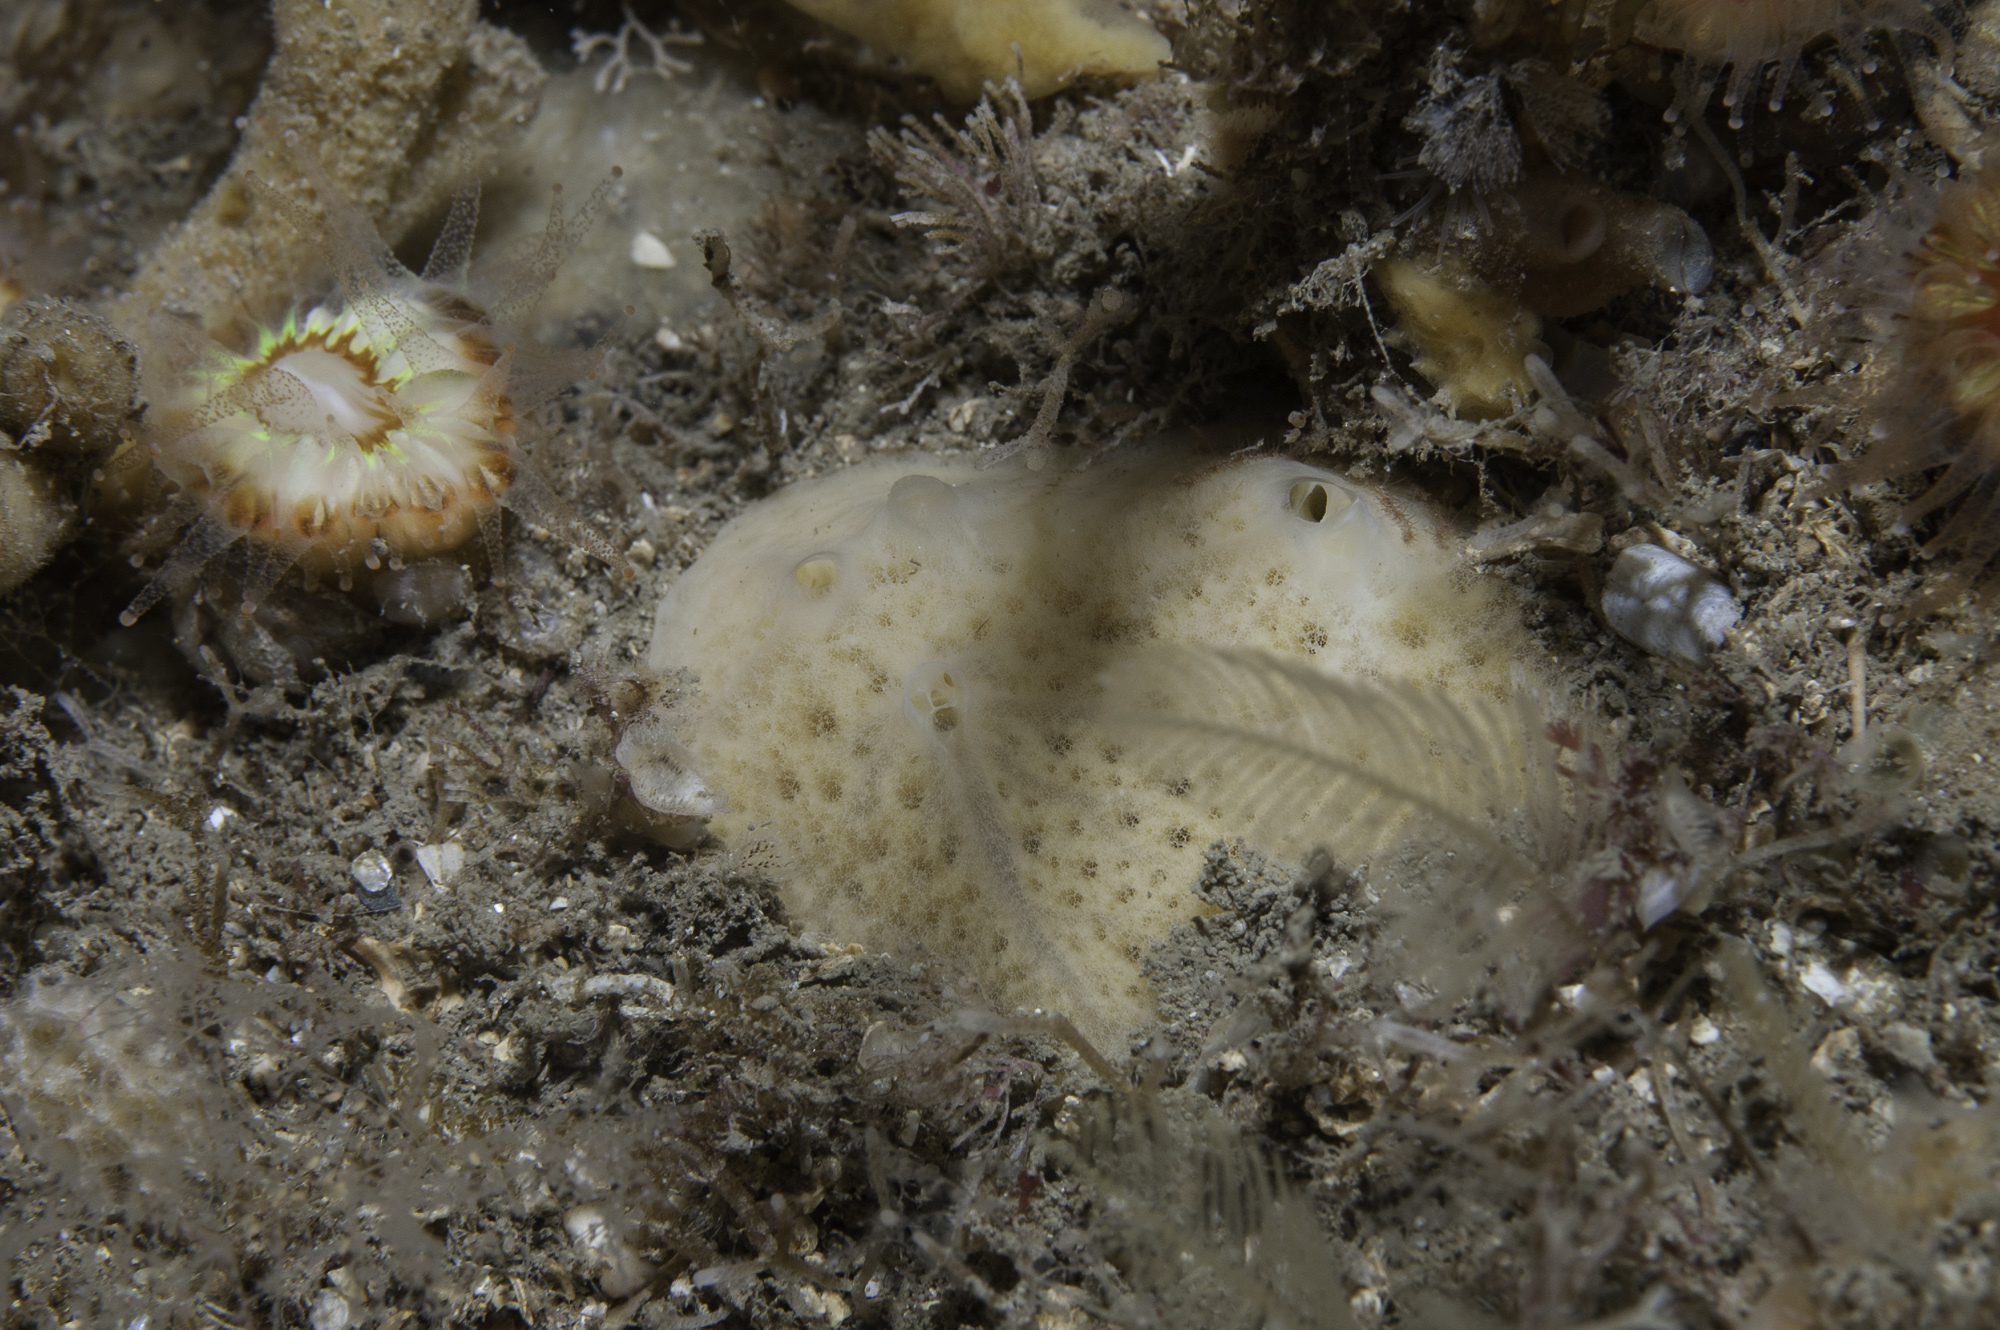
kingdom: Animalia
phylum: Porifera
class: Demospongiae
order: Poecilosclerida
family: Myxillidae
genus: Myxilla
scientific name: Myxilla fimbriata
